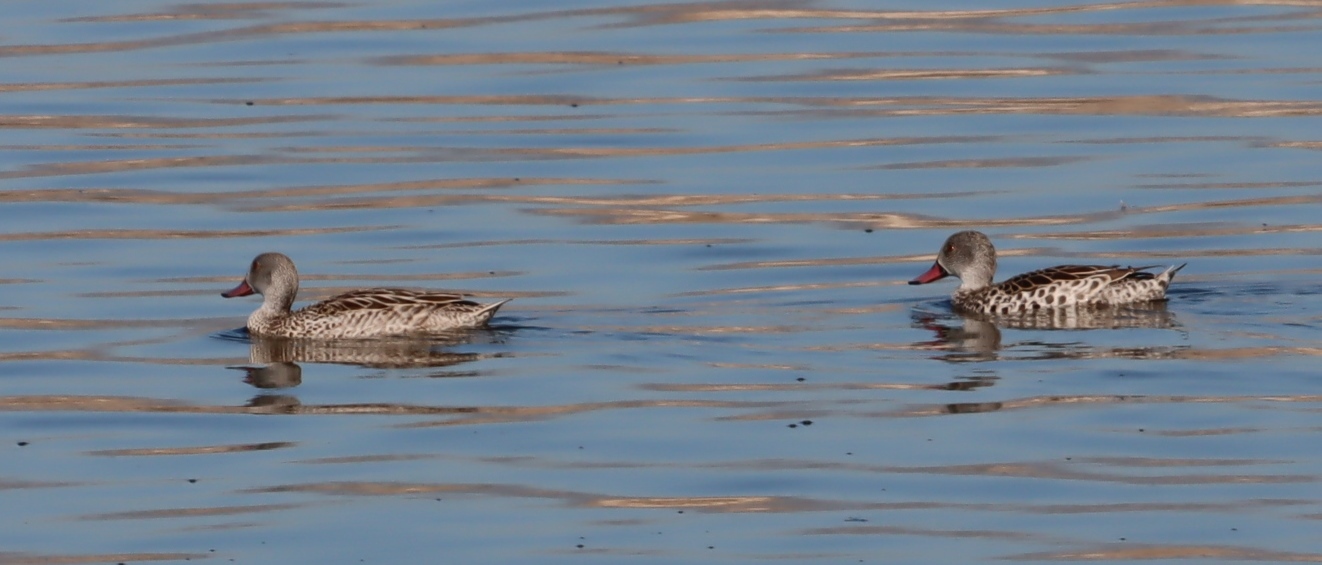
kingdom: Animalia
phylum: Chordata
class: Aves
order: Anseriformes
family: Anatidae
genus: Anas
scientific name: Anas capensis
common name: Cape teal
